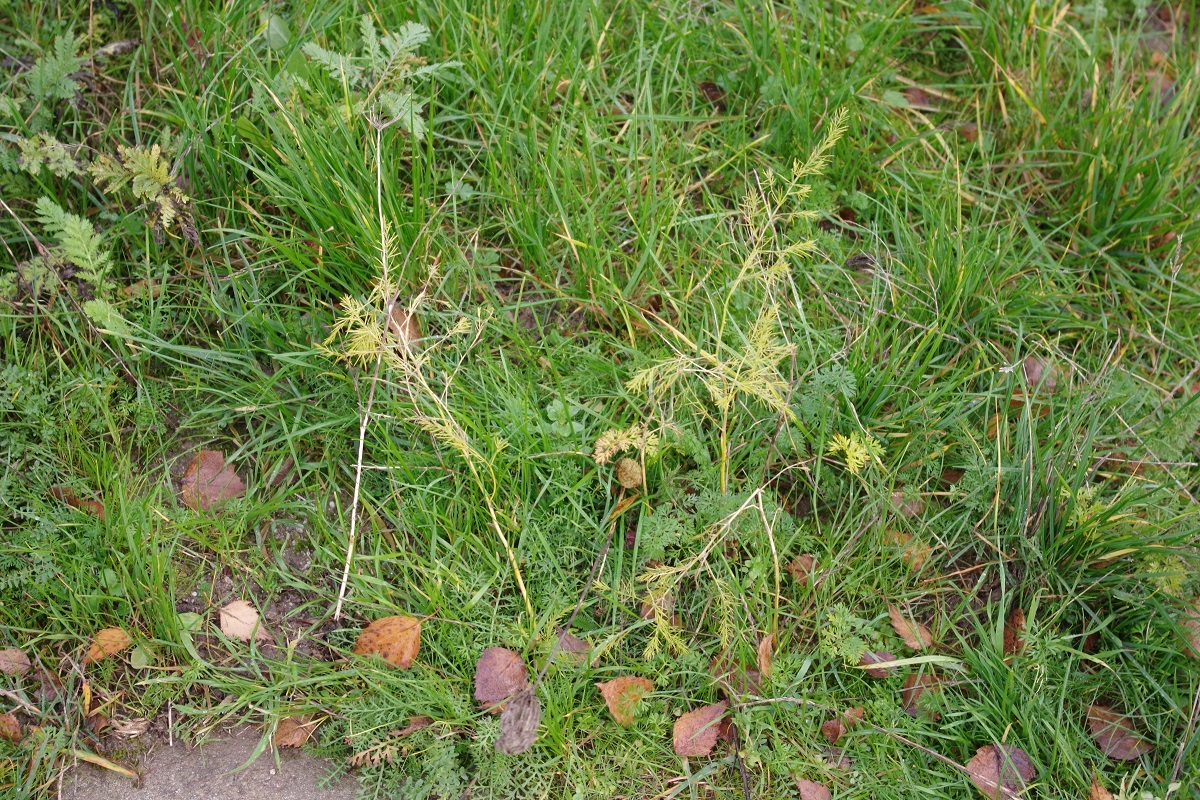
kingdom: Plantae
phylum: Tracheophyta
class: Liliopsida
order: Asparagales
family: Asparagaceae
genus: Asparagus
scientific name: Asparagus officinalis
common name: Garden asparagus
